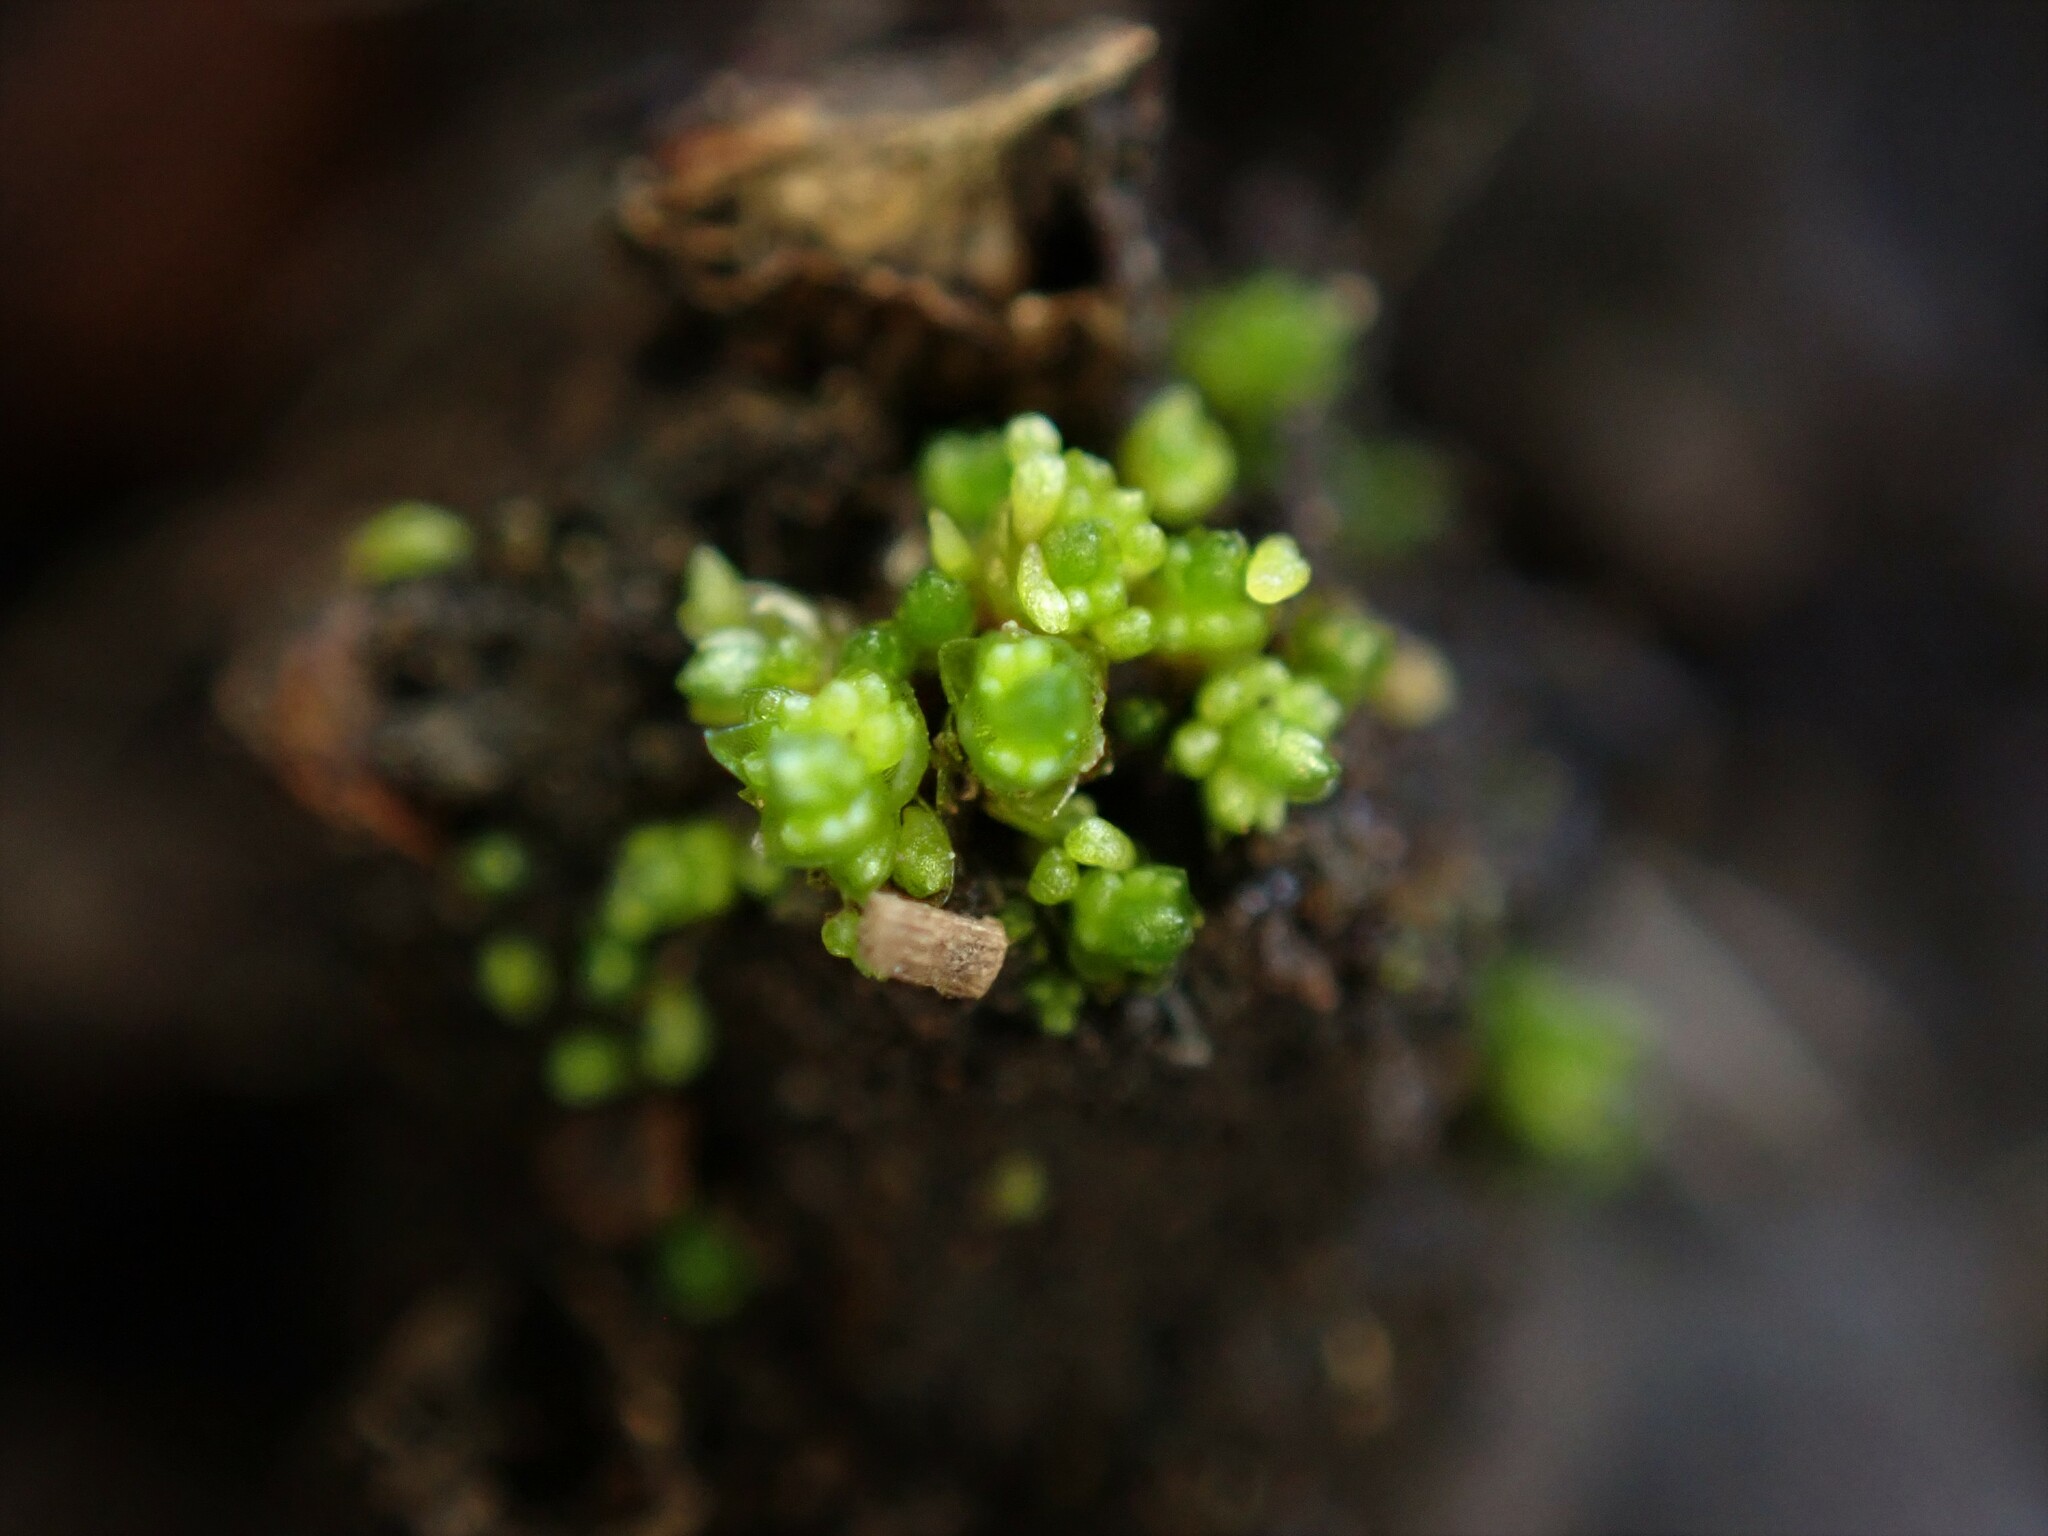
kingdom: Plantae
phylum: Bryophyta
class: Bryopsida
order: Bryales
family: Bryaceae
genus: Gemmabryum
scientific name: Gemmabryum
